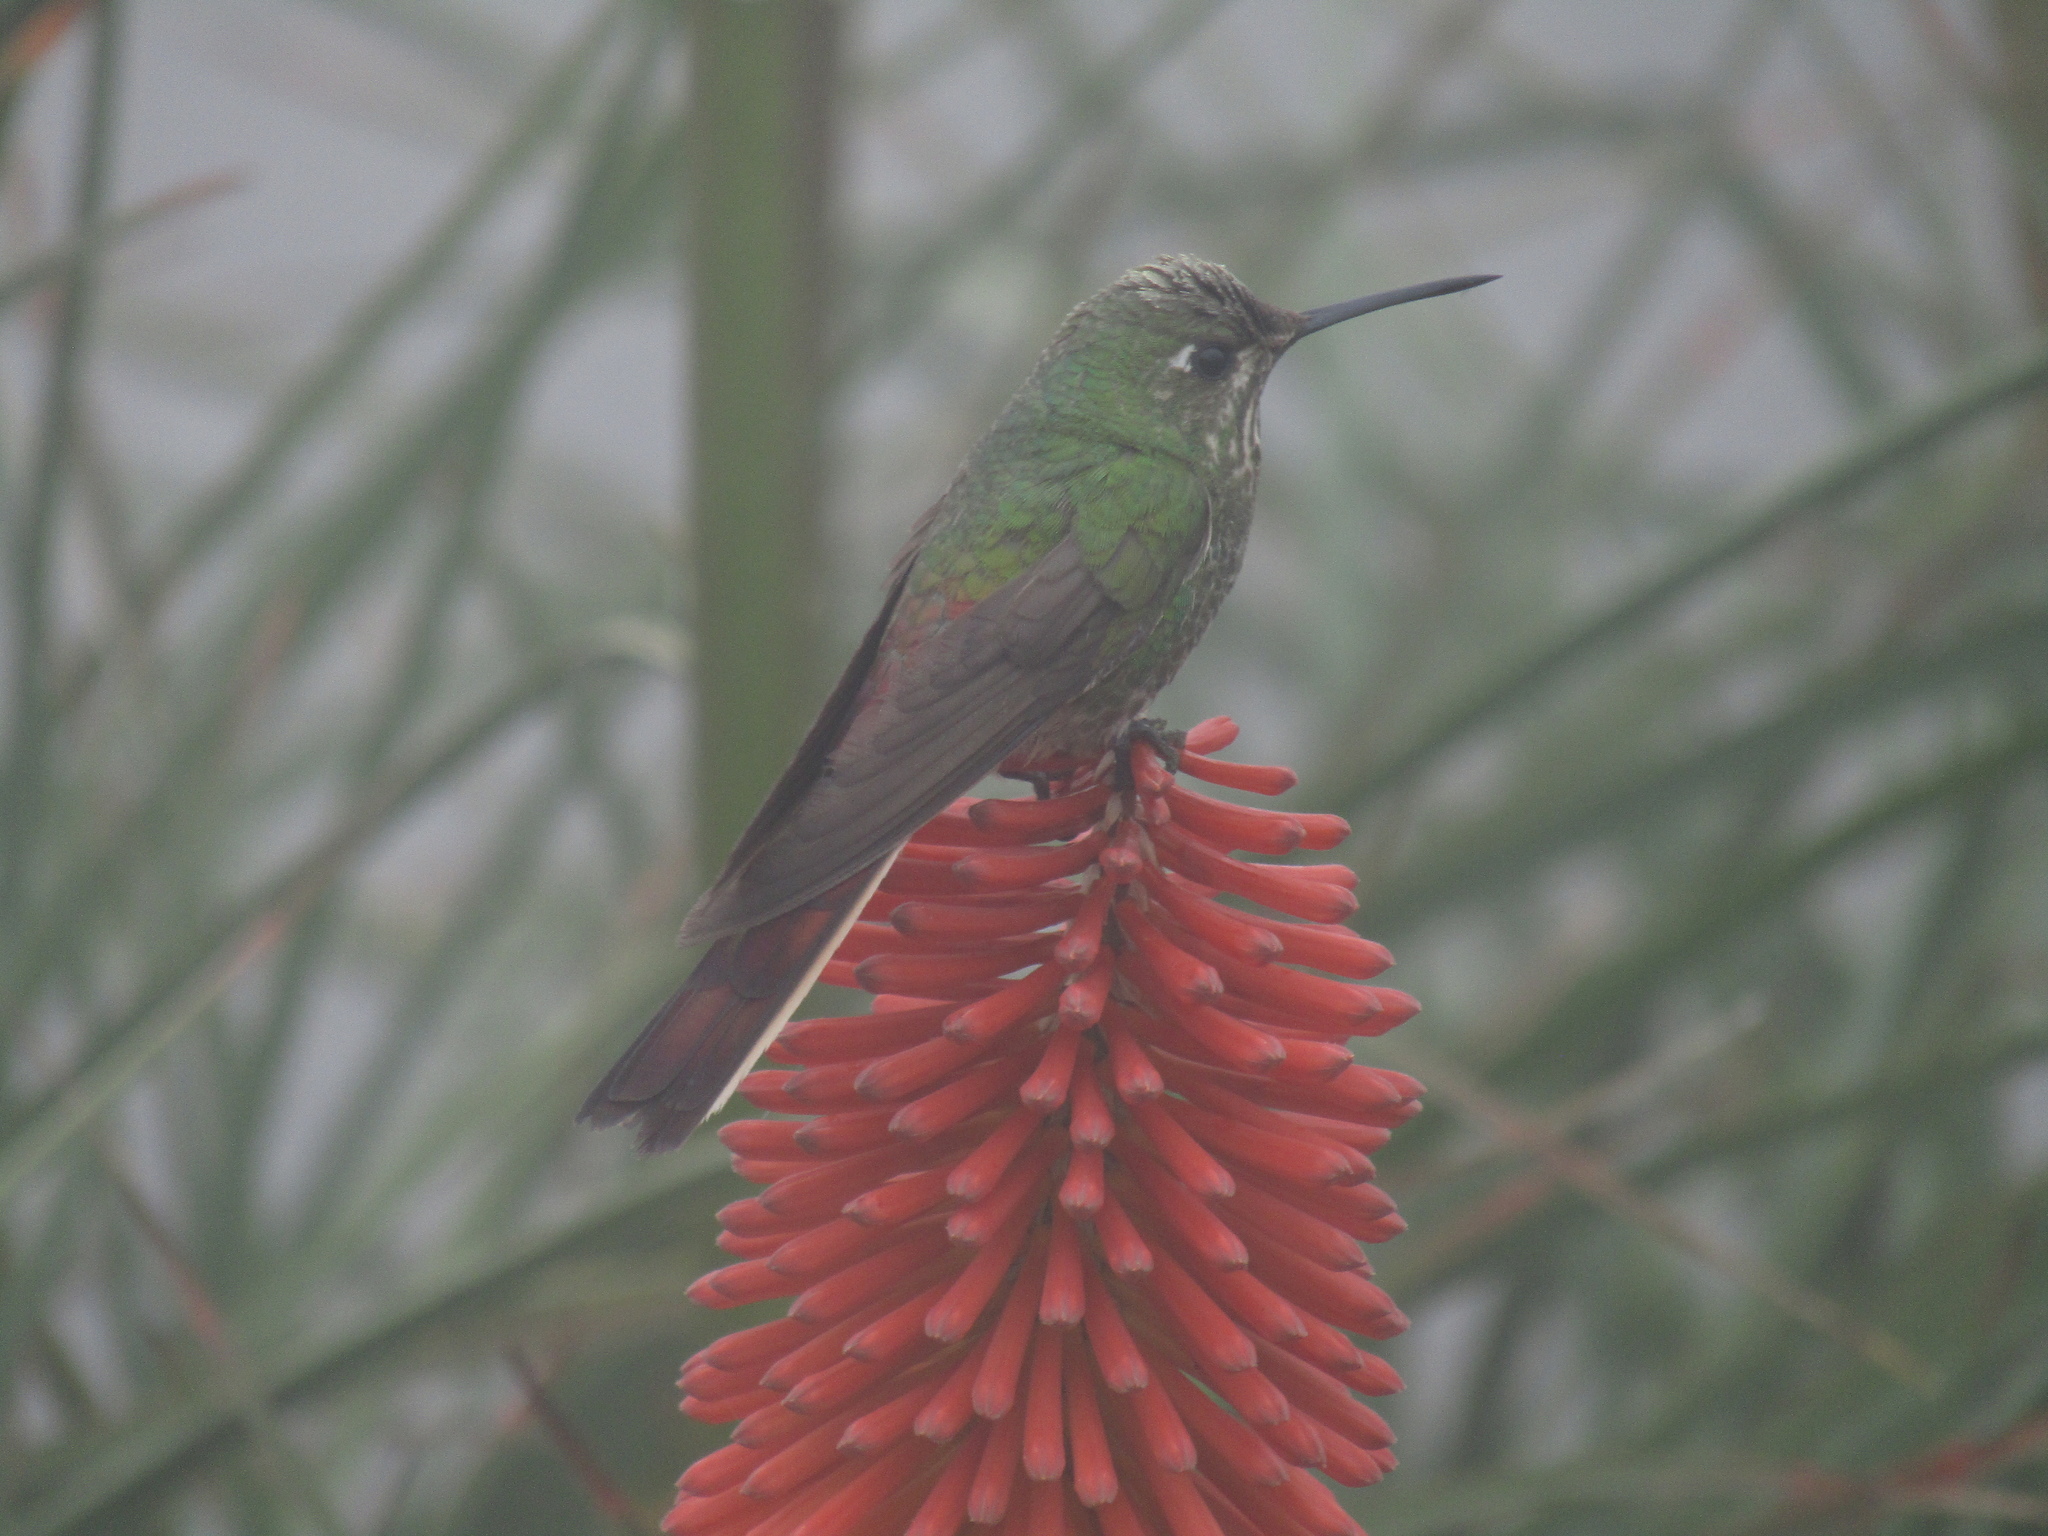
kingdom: Animalia
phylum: Chordata
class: Aves
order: Apodiformes
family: Trochilidae
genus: Sappho
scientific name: Sappho sparganurus
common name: Red-tailed comet
